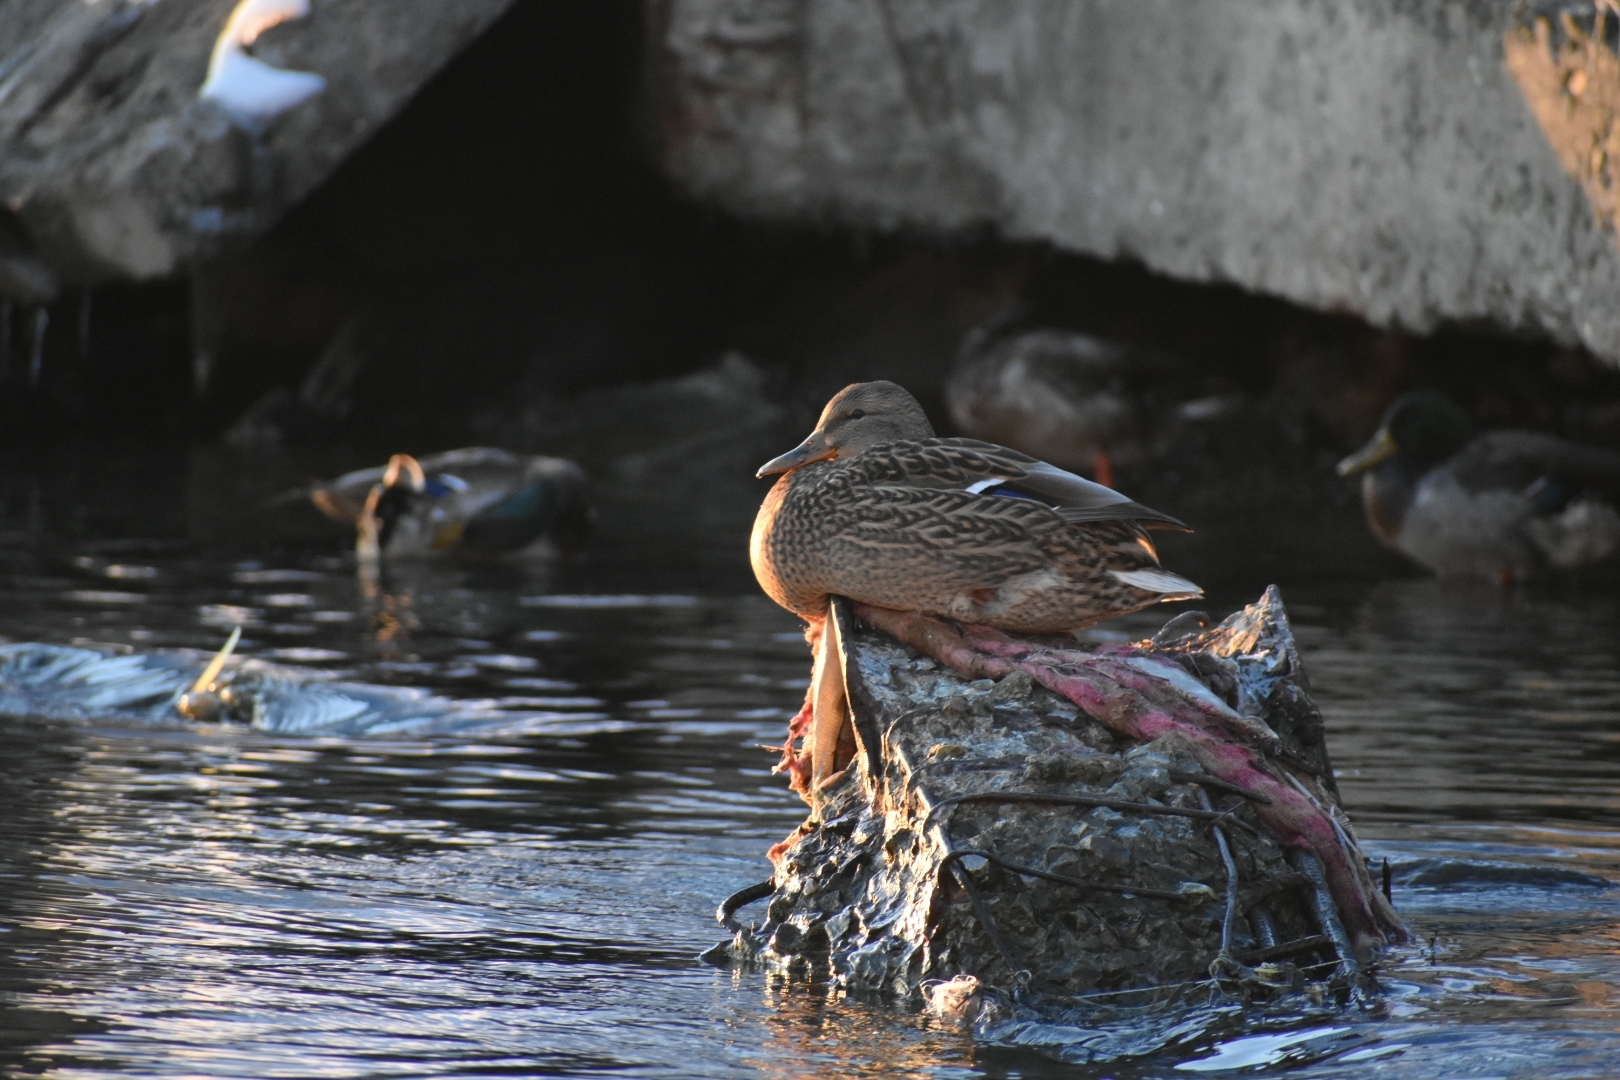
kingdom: Animalia
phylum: Chordata
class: Aves
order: Anseriformes
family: Anatidae
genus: Anas
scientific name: Anas platyrhynchos
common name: Mallard
